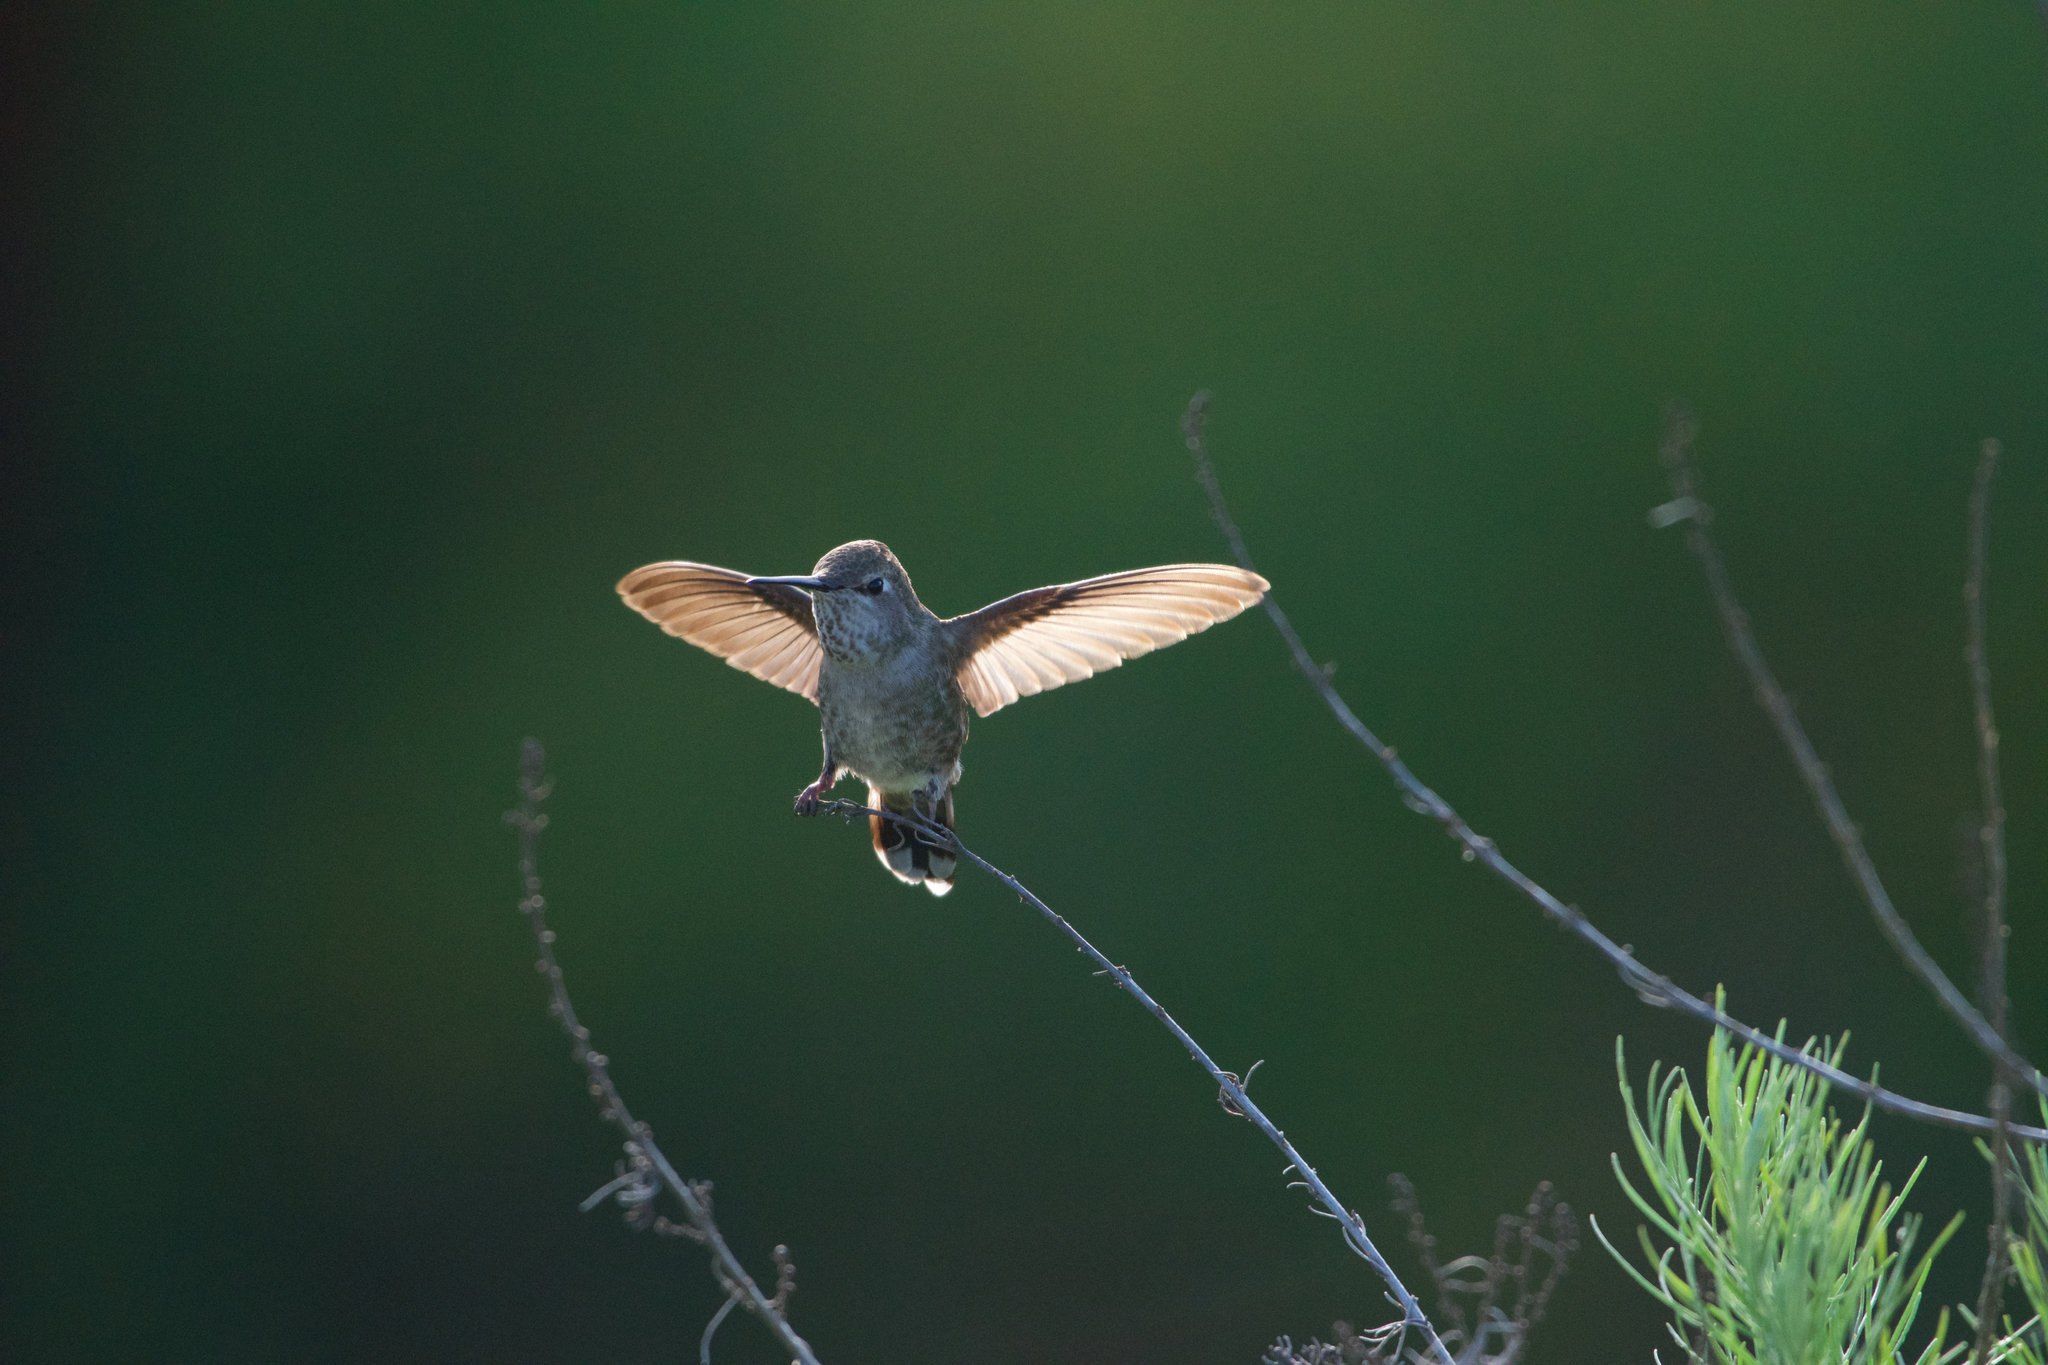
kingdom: Animalia
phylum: Chordata
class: Aves
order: Apodiformes
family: Trochilidae
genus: Calypte
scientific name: Calypte anna
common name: Anna's hummingbird
